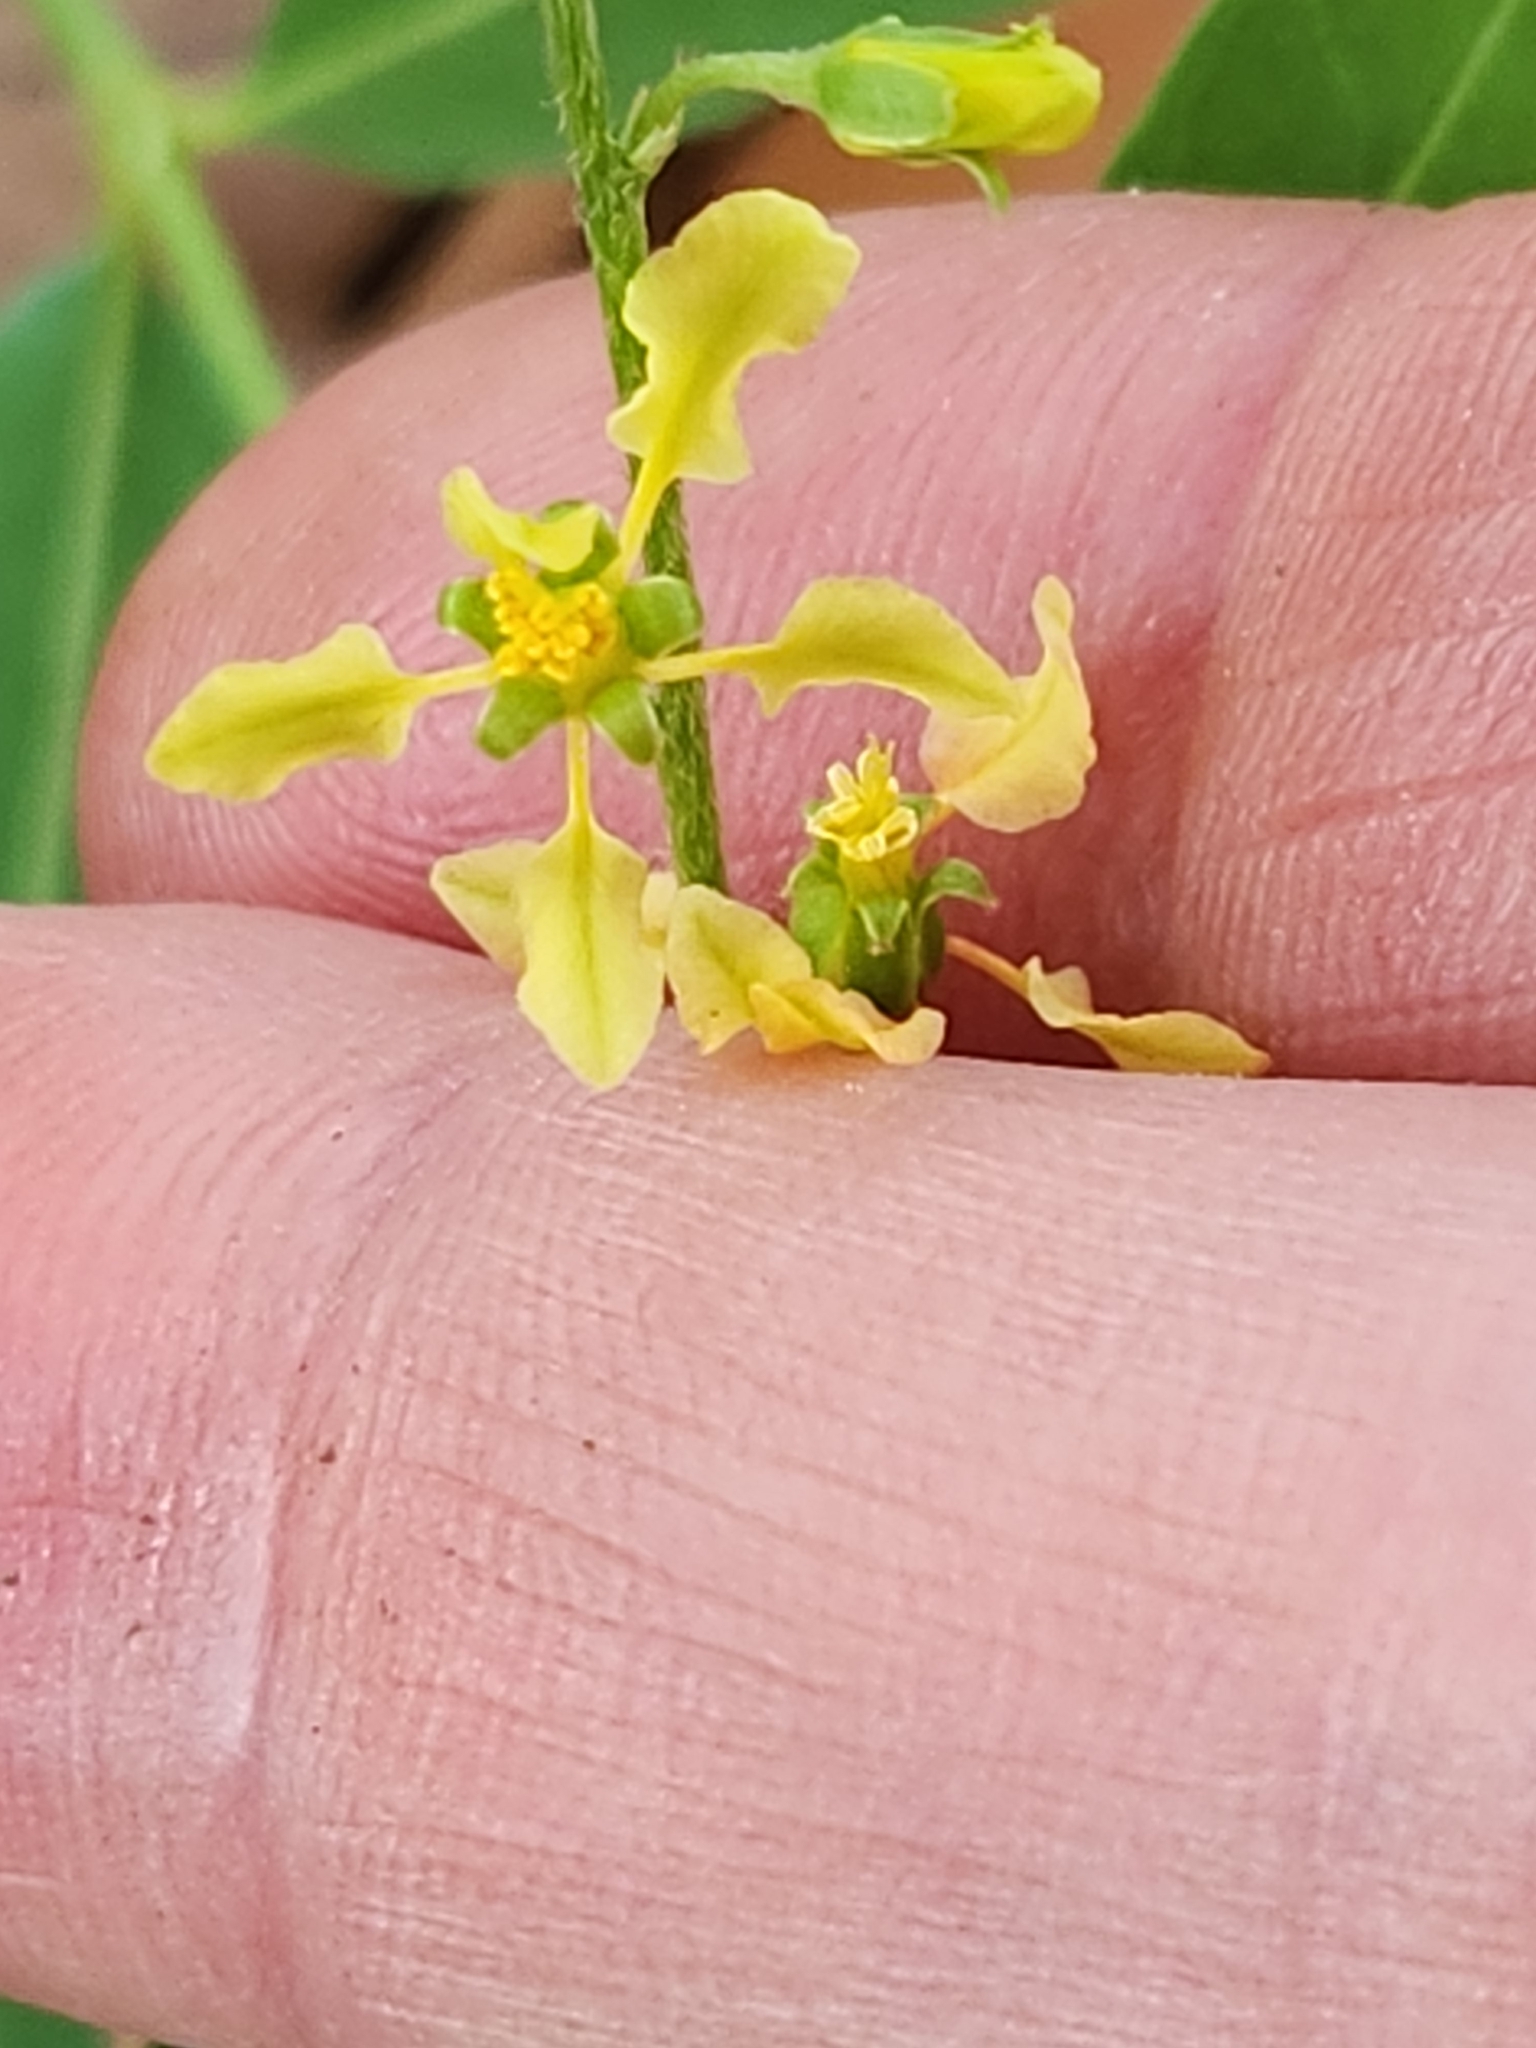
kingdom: Plantae
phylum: Tracheophyta
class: Magnoliopsida
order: Malpighiales
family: Malpighiaceae
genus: Galphimia
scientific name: Galphimia angustifolia
